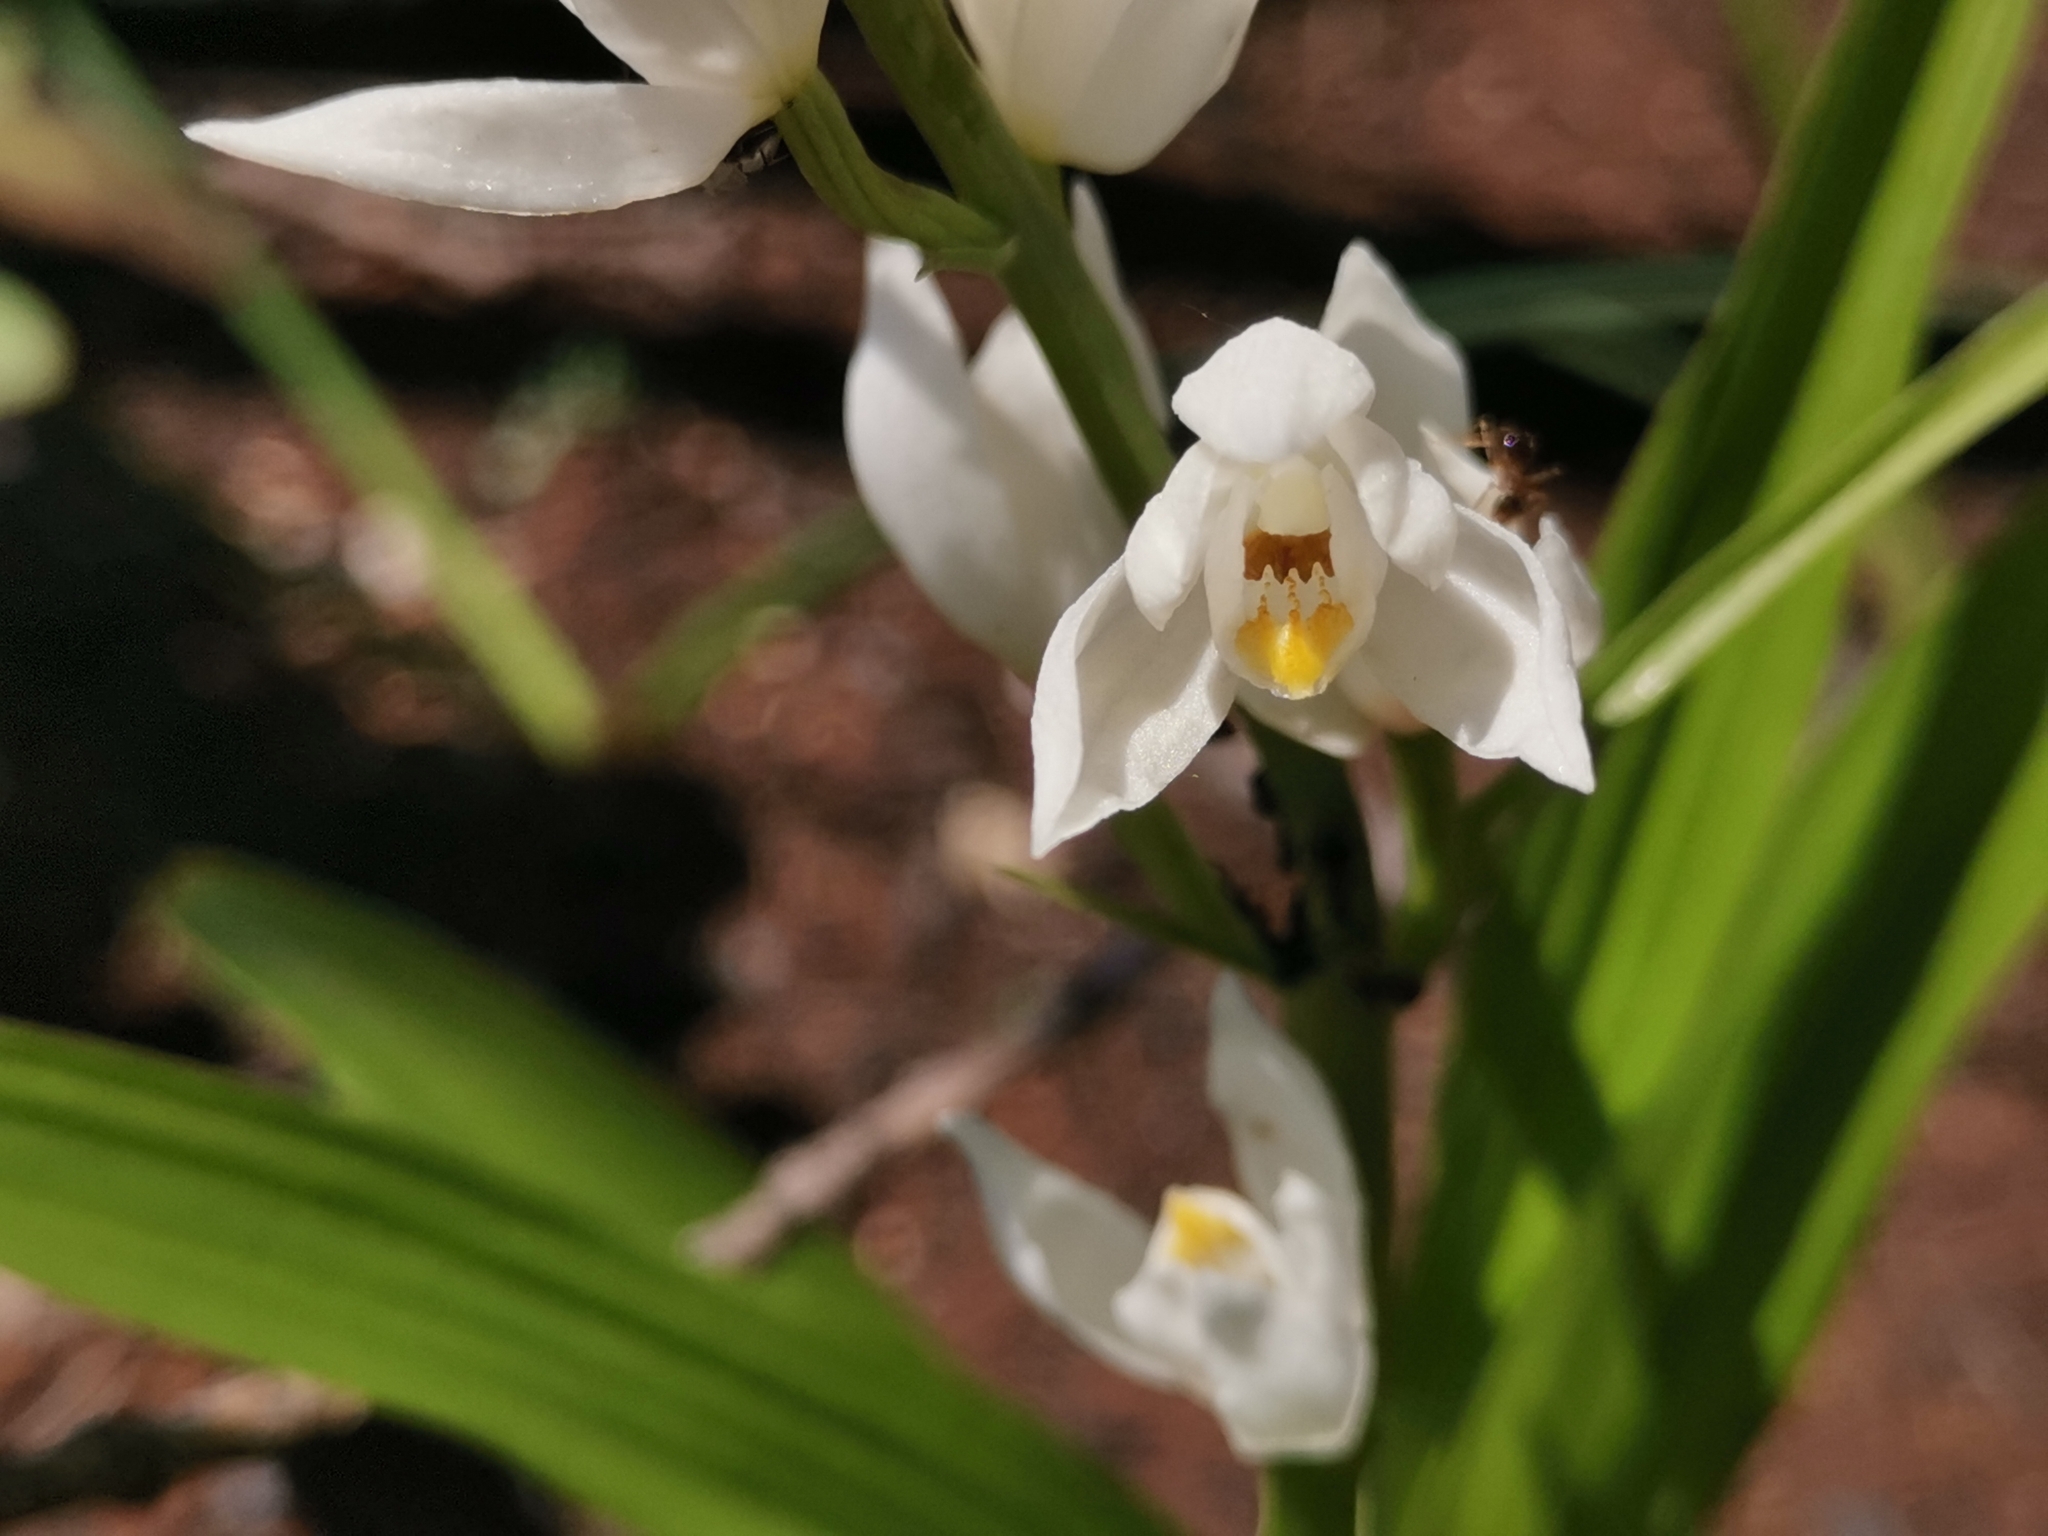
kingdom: Plantae
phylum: Tracheophyta
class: Liliopsida
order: Asparagales
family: Orchidaceae
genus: Cephalanthera
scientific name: Cephalanthera longifolia
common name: Narrow-leaved helleborine
